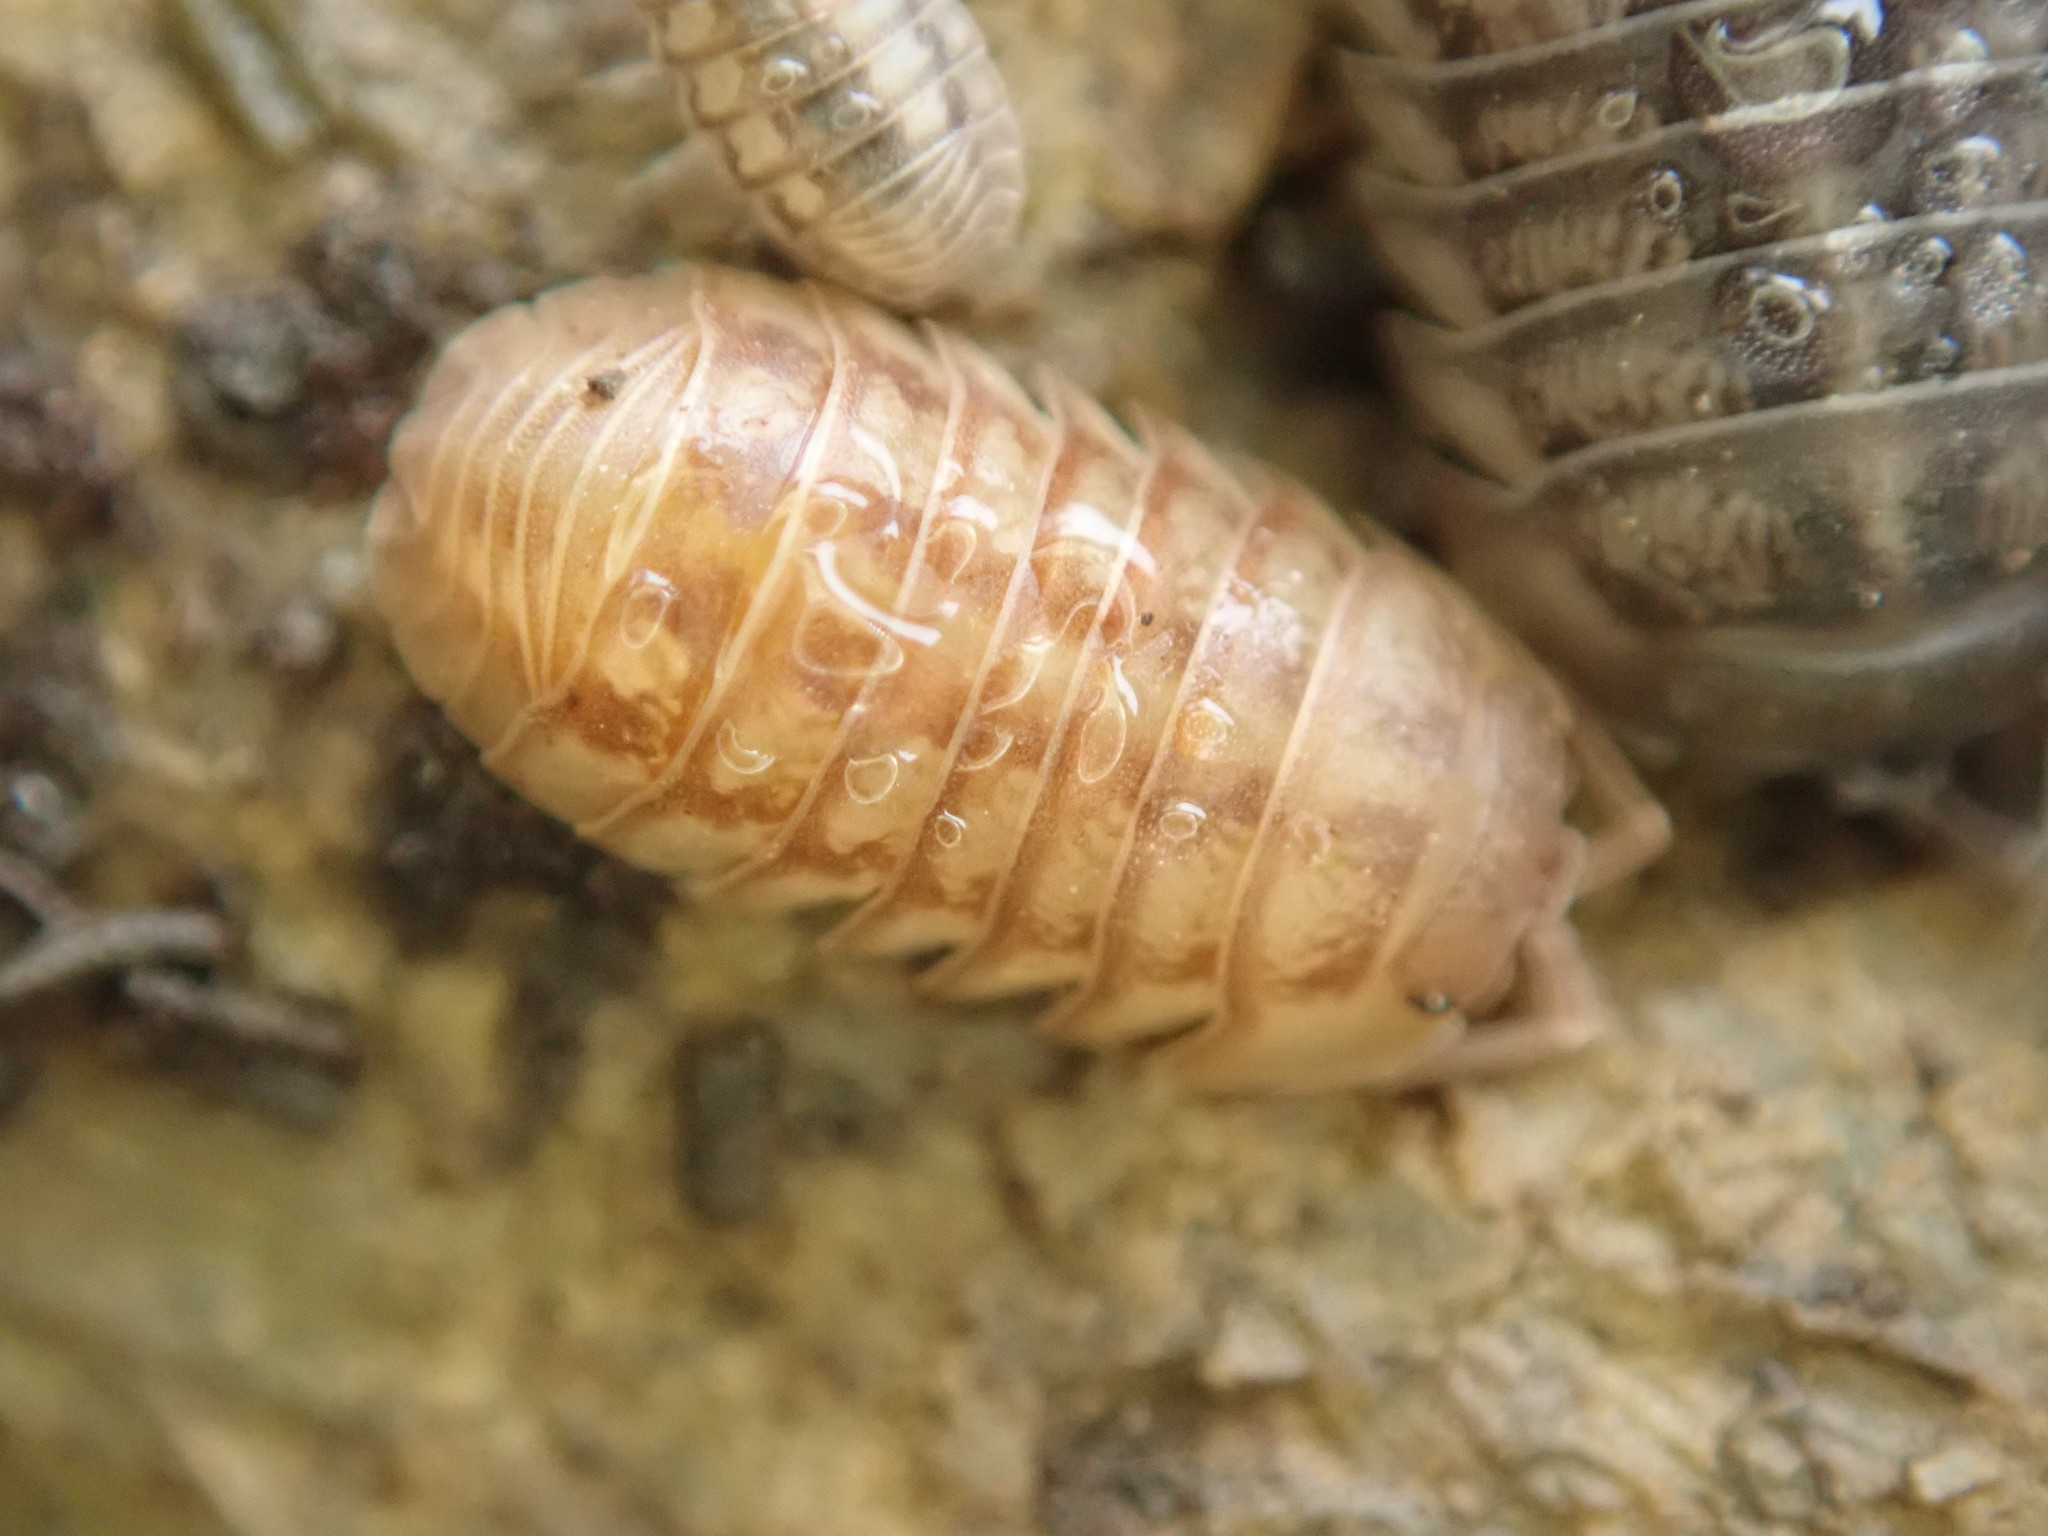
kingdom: Animalia
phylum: Arthropoda
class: Malacostraca
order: Isopoda
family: Armadillidiidae
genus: Armadillidium
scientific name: Armadillidium nasatum
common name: Isopod
